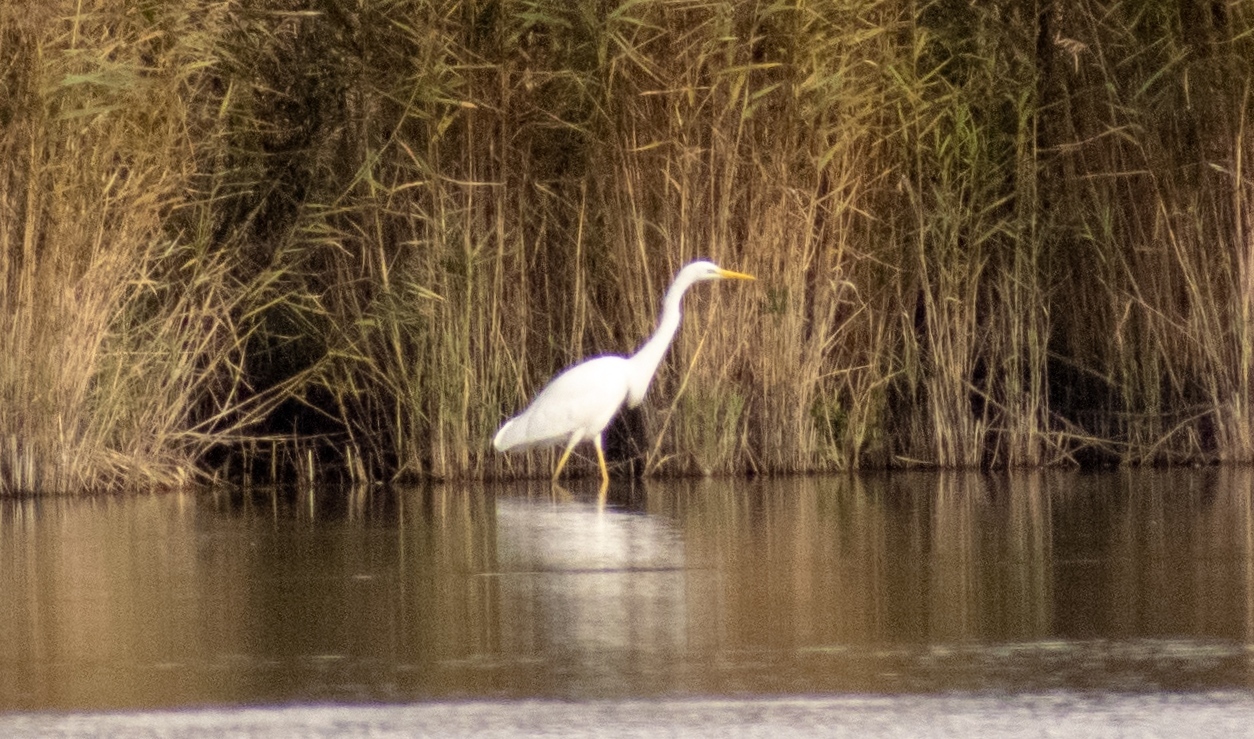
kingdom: Animalia
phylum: Chordata
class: Aves
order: Pelecaniformes
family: Ardeidae
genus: Ardea
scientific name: Ardea alba
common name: Great egret
